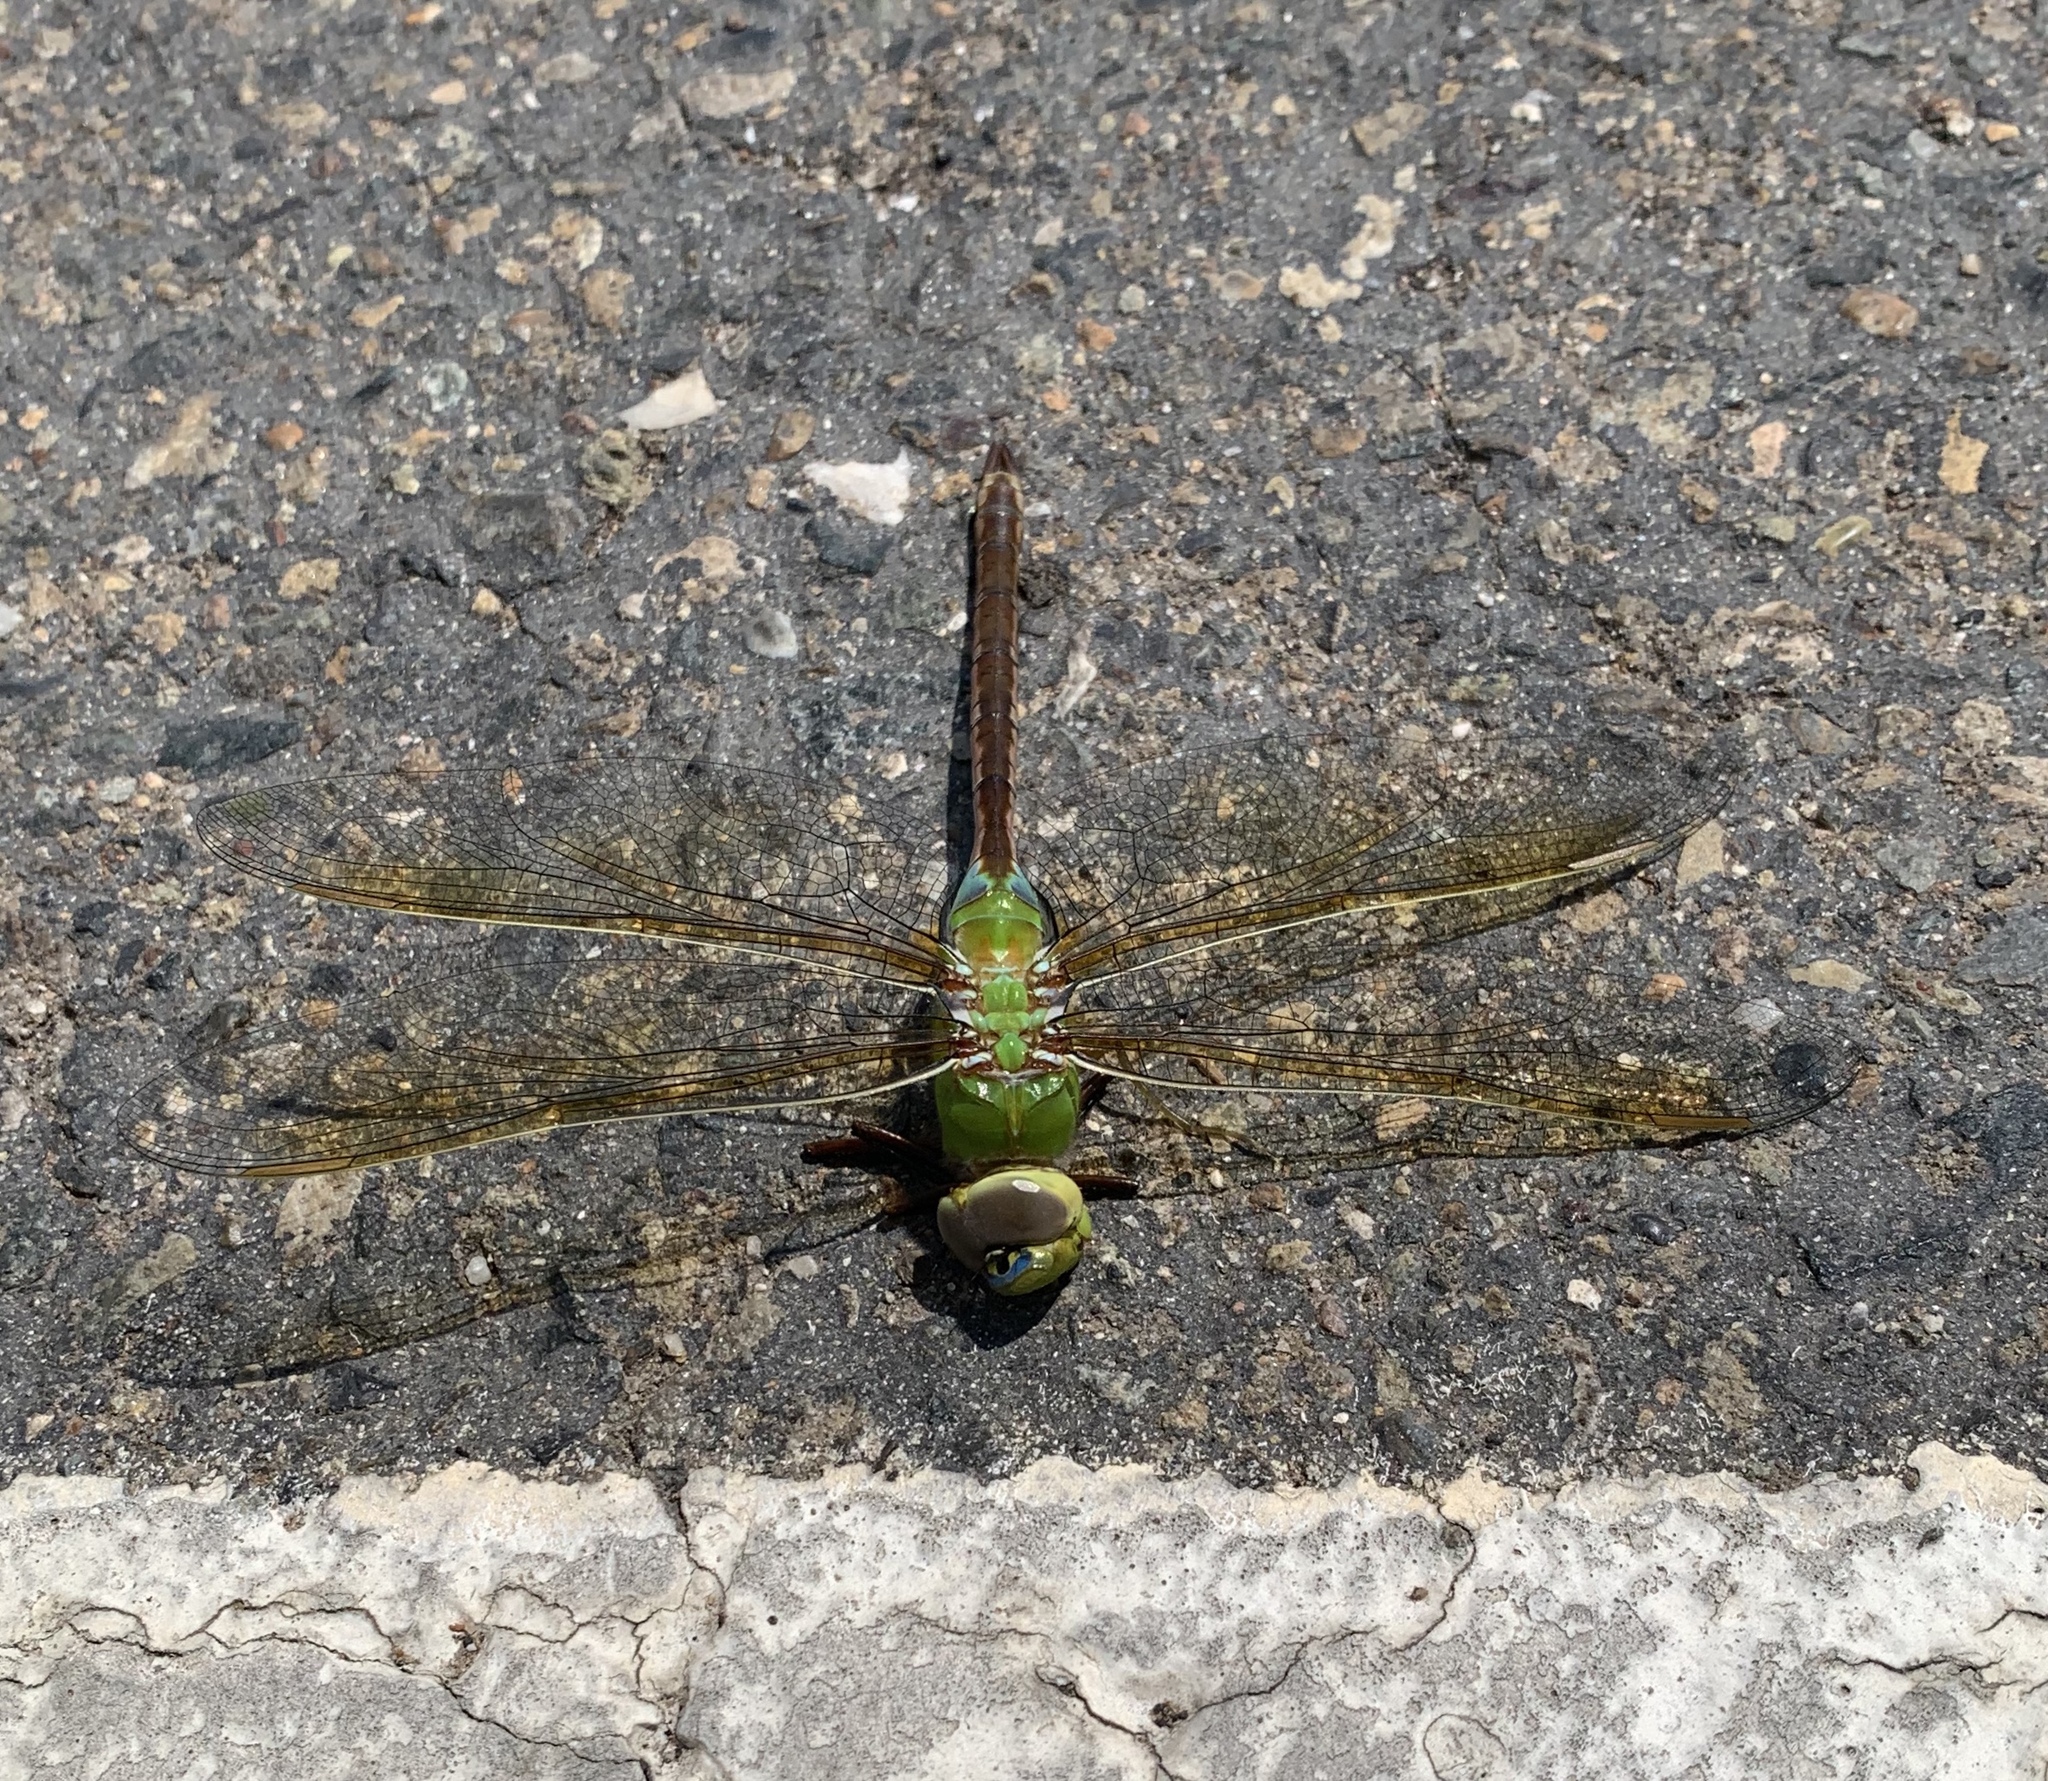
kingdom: Animalia
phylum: Arthropoda
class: Insecta
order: Odonata
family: Aeshnidae
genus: Anax
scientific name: Anax junius
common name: Common green darner
